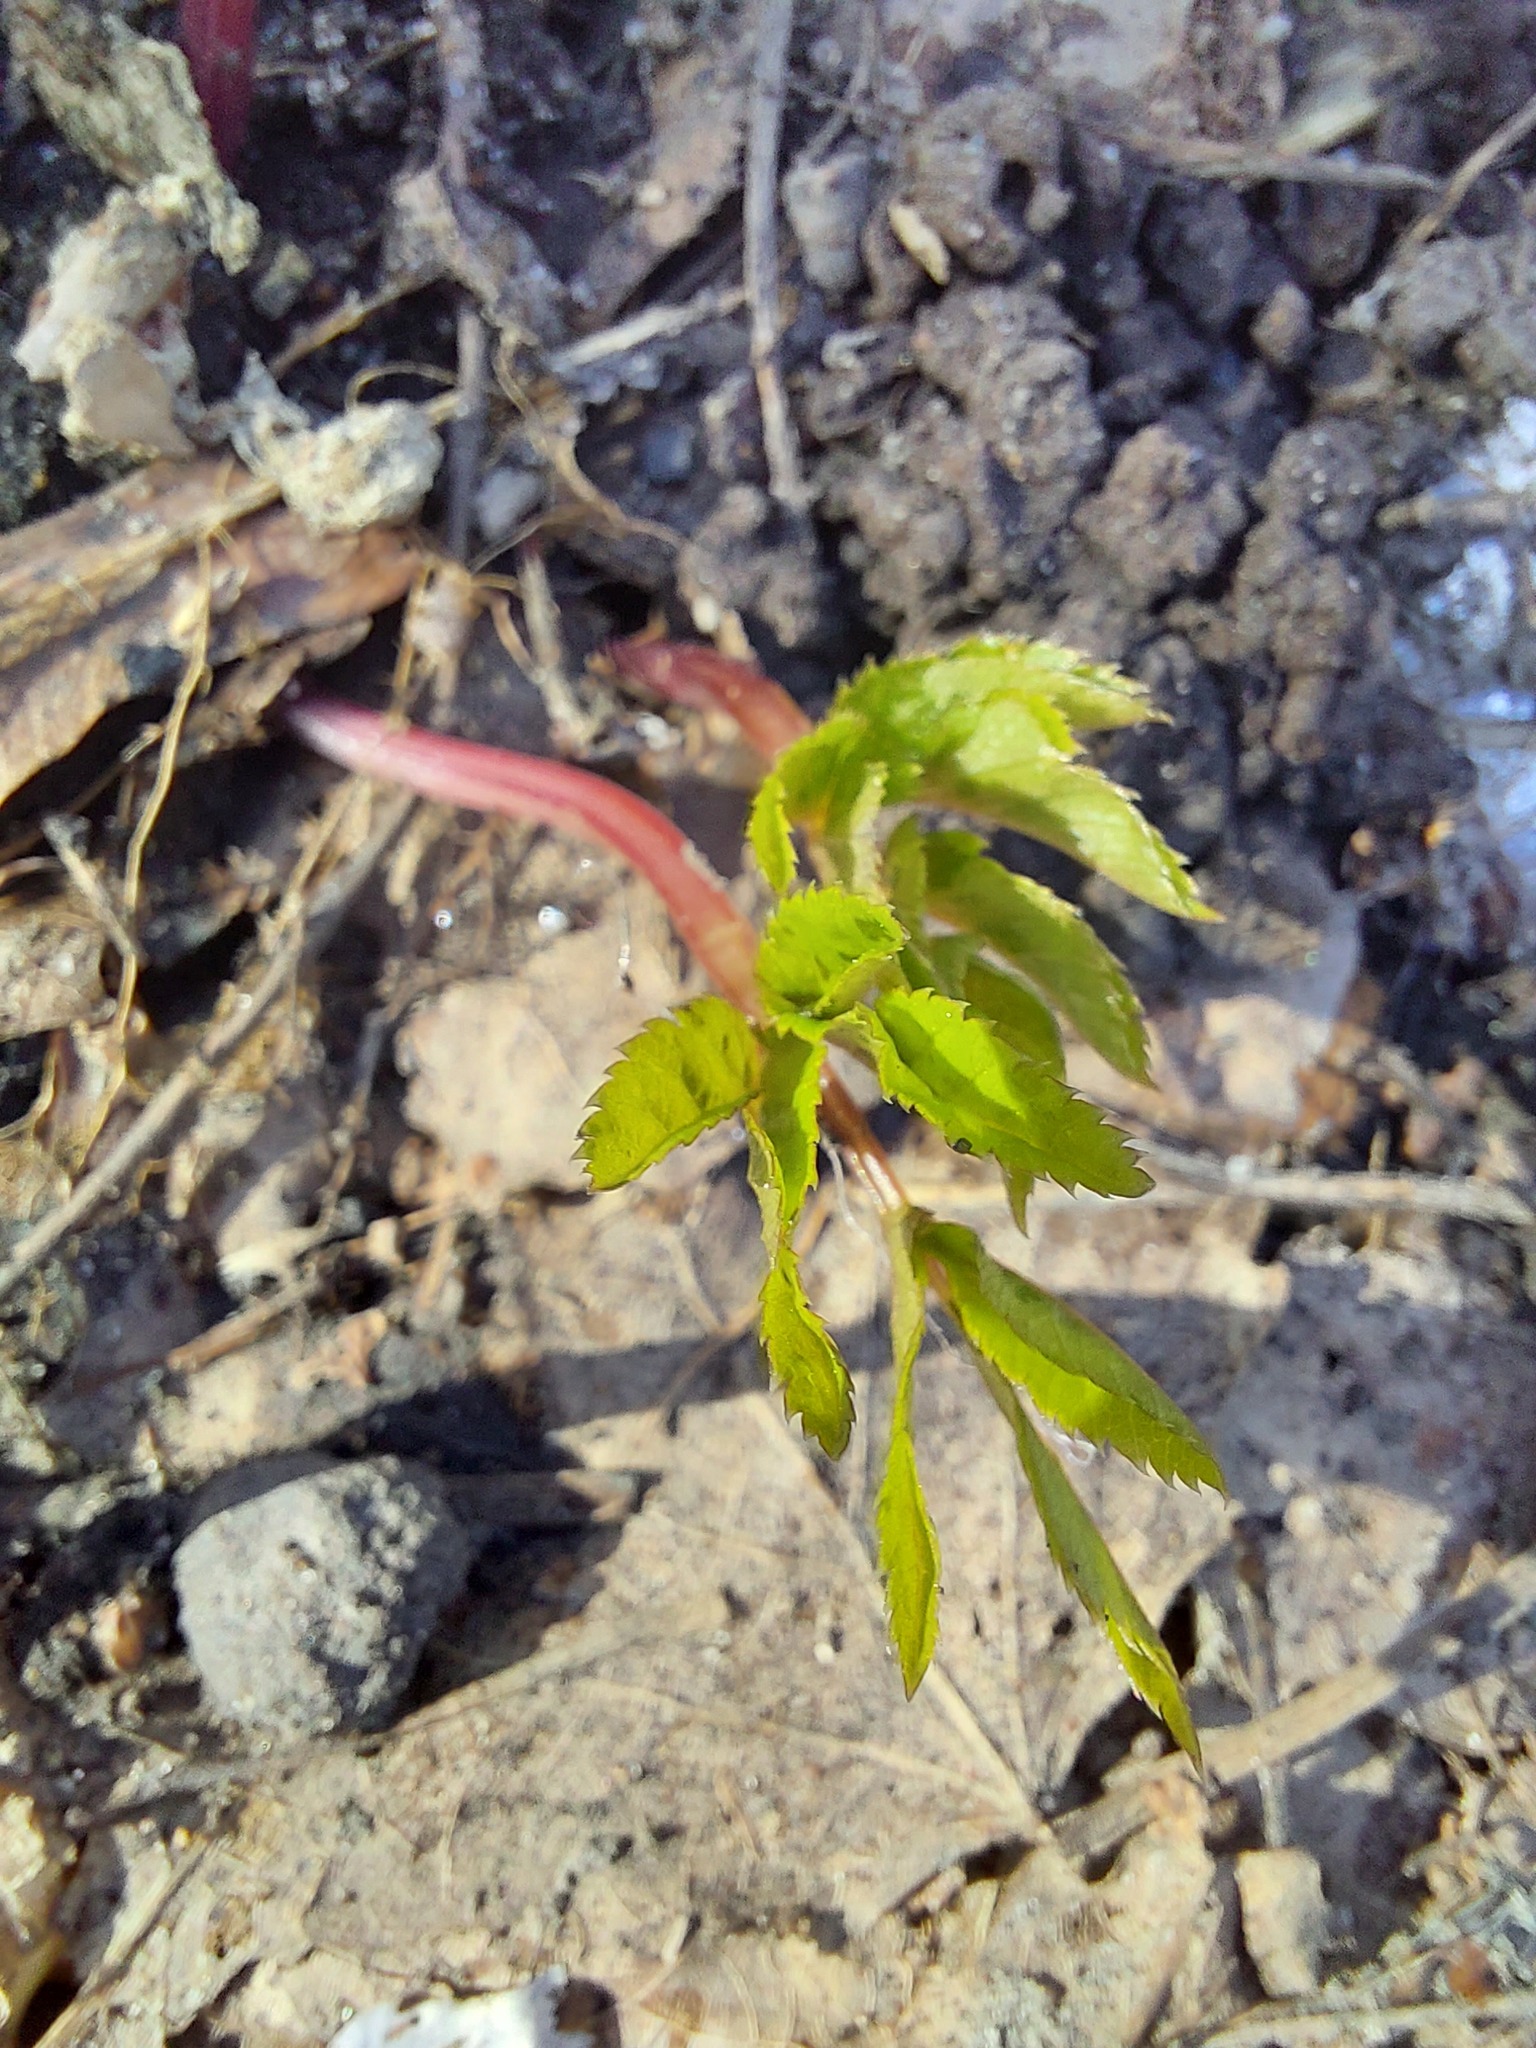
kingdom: Plantae
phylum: Tracheophyta
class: Magnoliopsida
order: Apiales
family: Apiaceae
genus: Aegopodium
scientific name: Aegopodium podagraria
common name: Ground-elder
